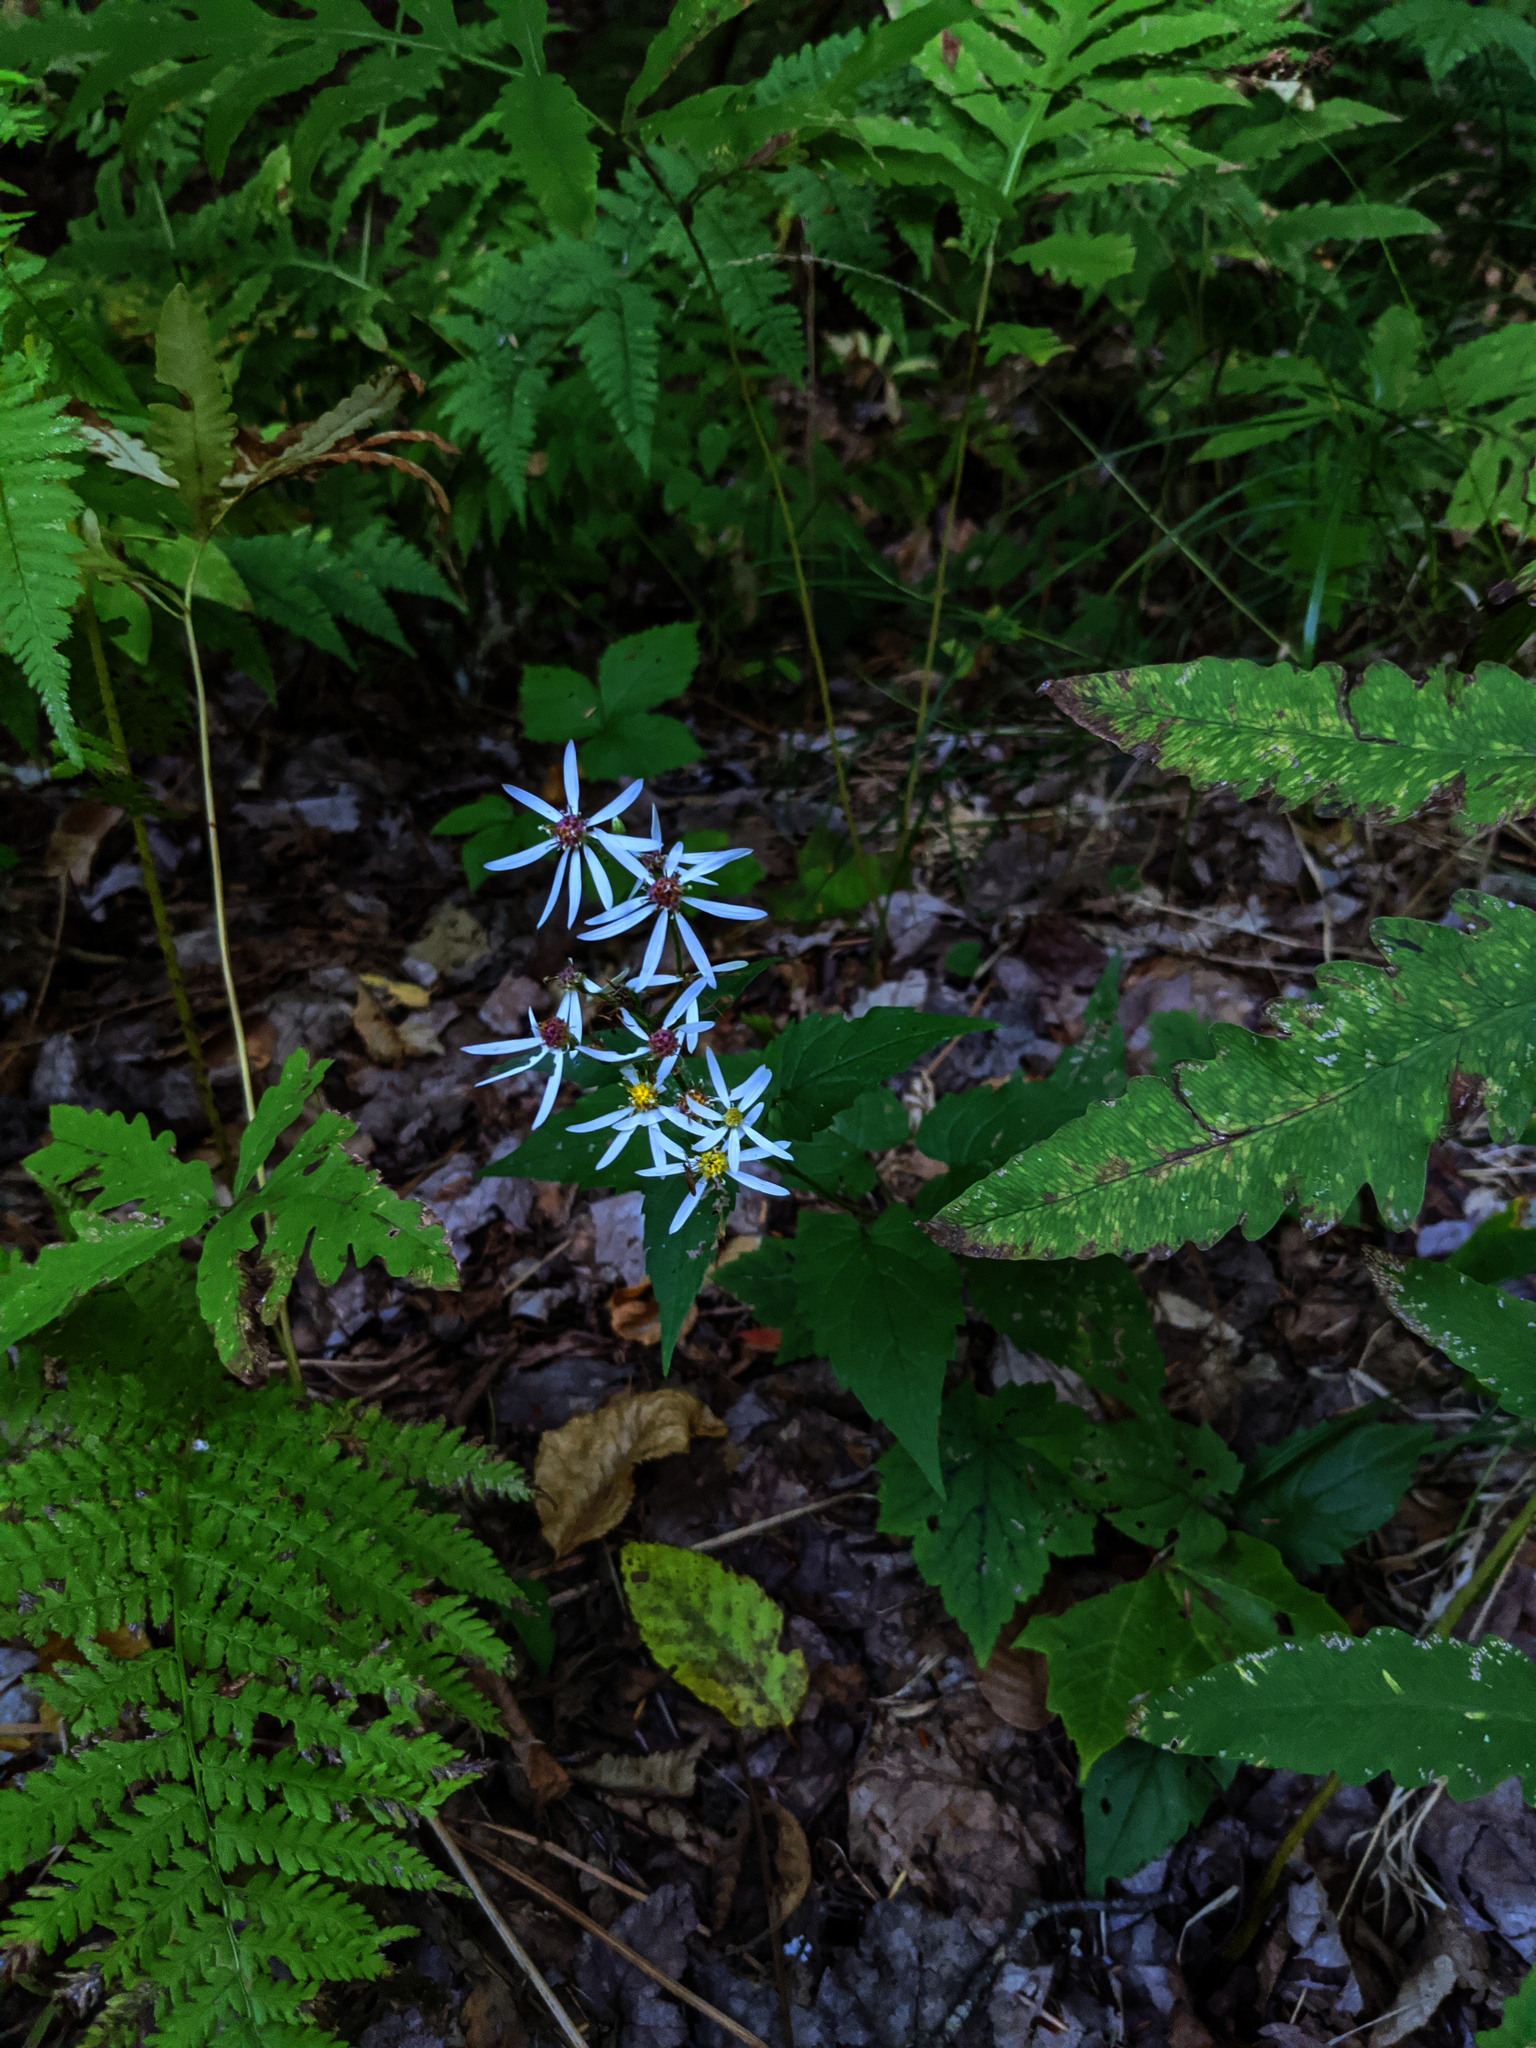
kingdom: Plantae
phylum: Tracheophyta
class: Magnoliopsida
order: Asterales
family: Asteraceae
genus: Eurybia
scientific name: Eurybia divaricata
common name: White wood aster
